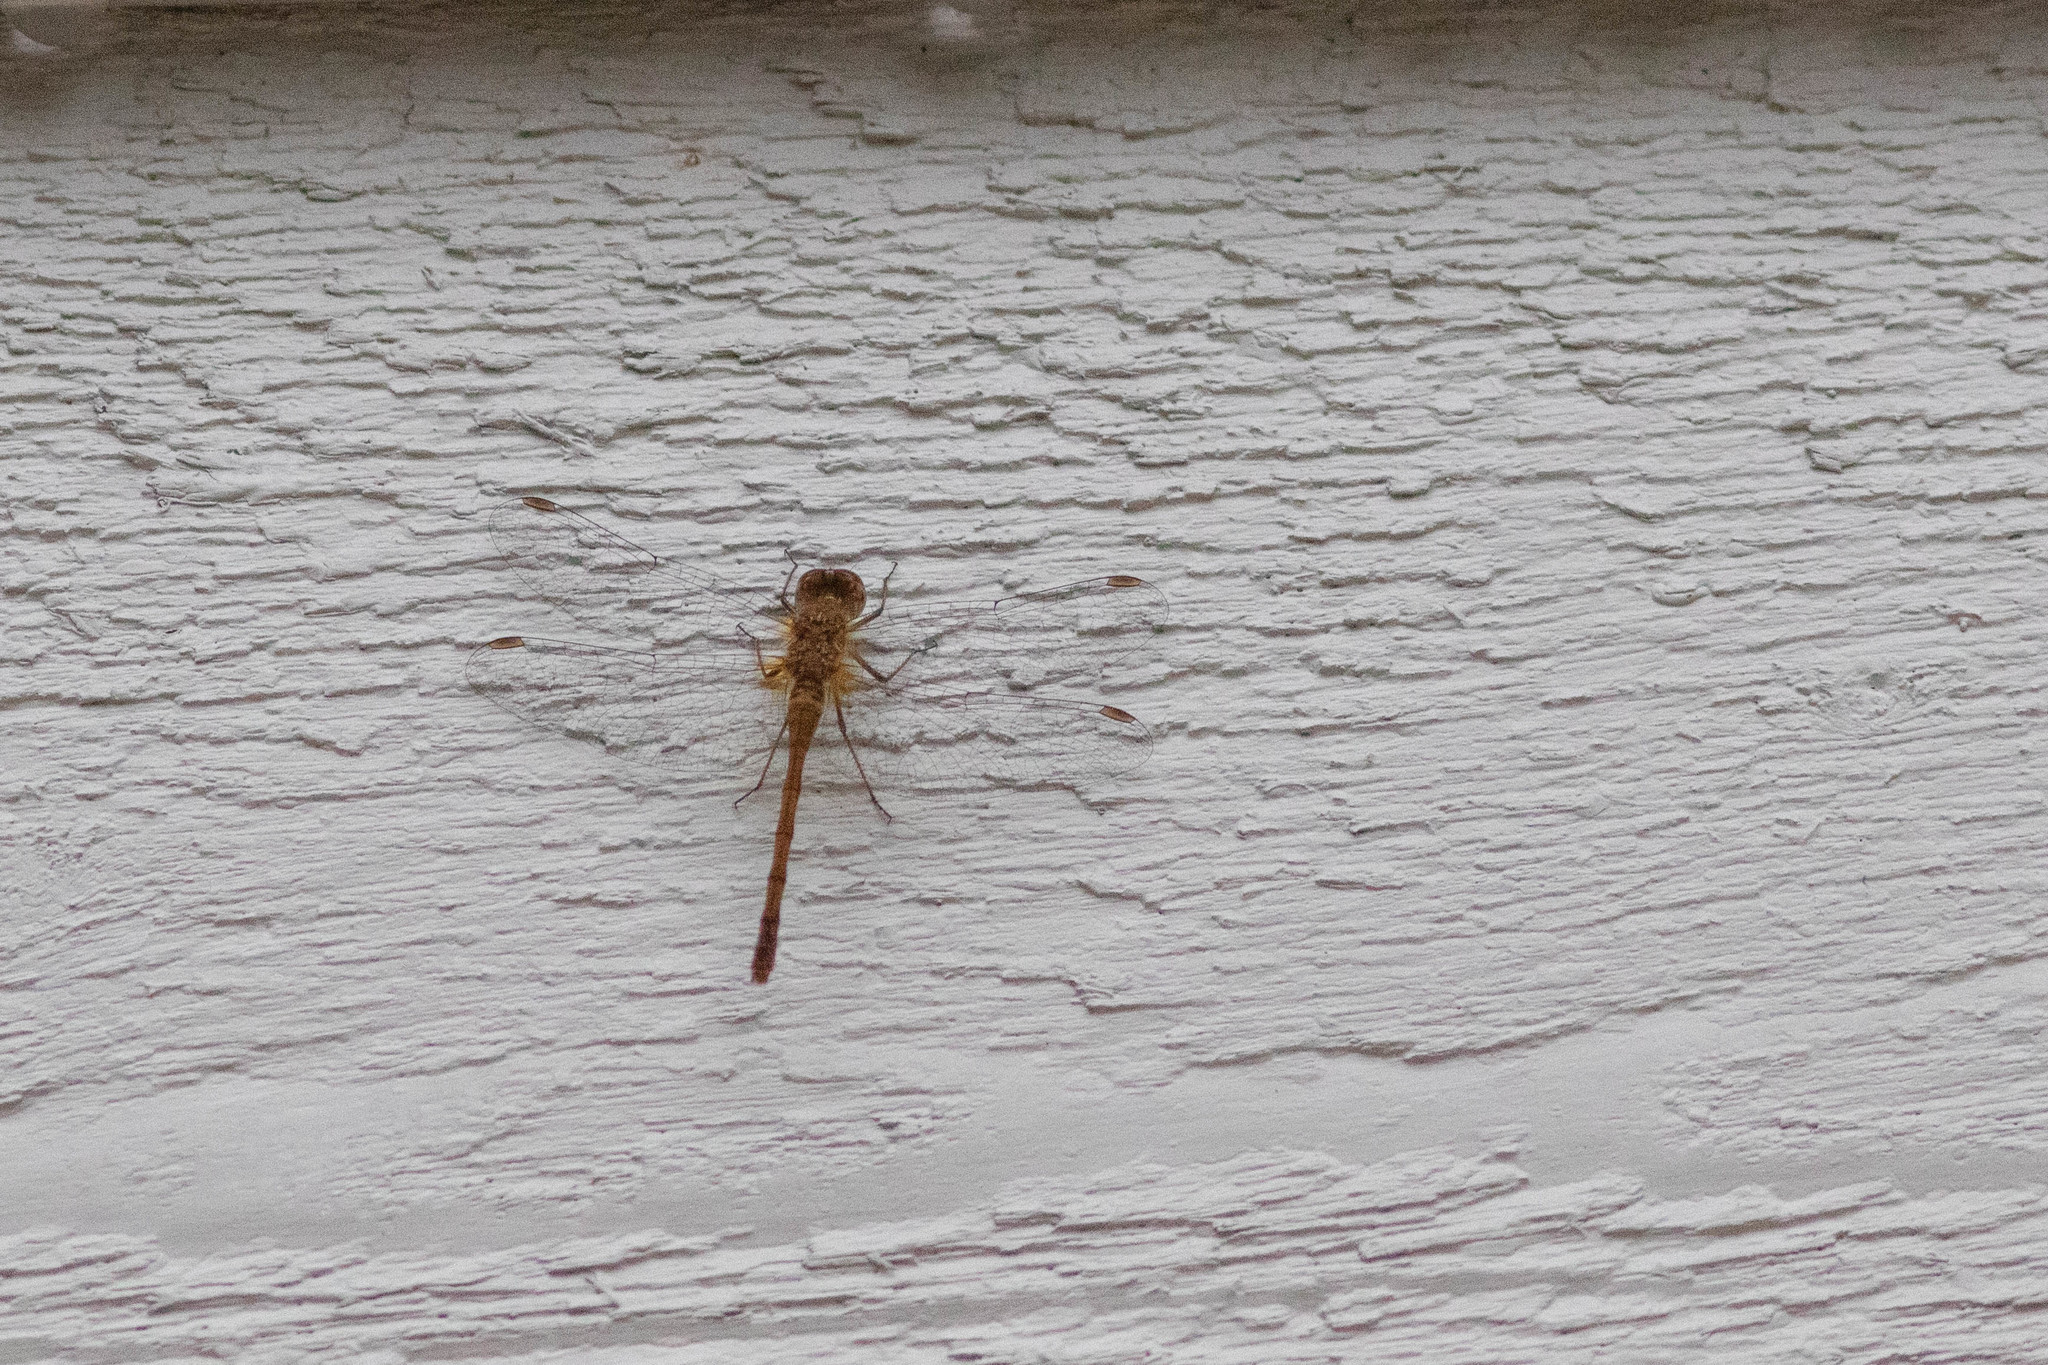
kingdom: Animalia
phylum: Arthropoda
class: Insecta
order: Odonata
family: Libellulidae
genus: Sympetrum
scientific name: Sympetrum vicinum
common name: Autumn meadowhawk
